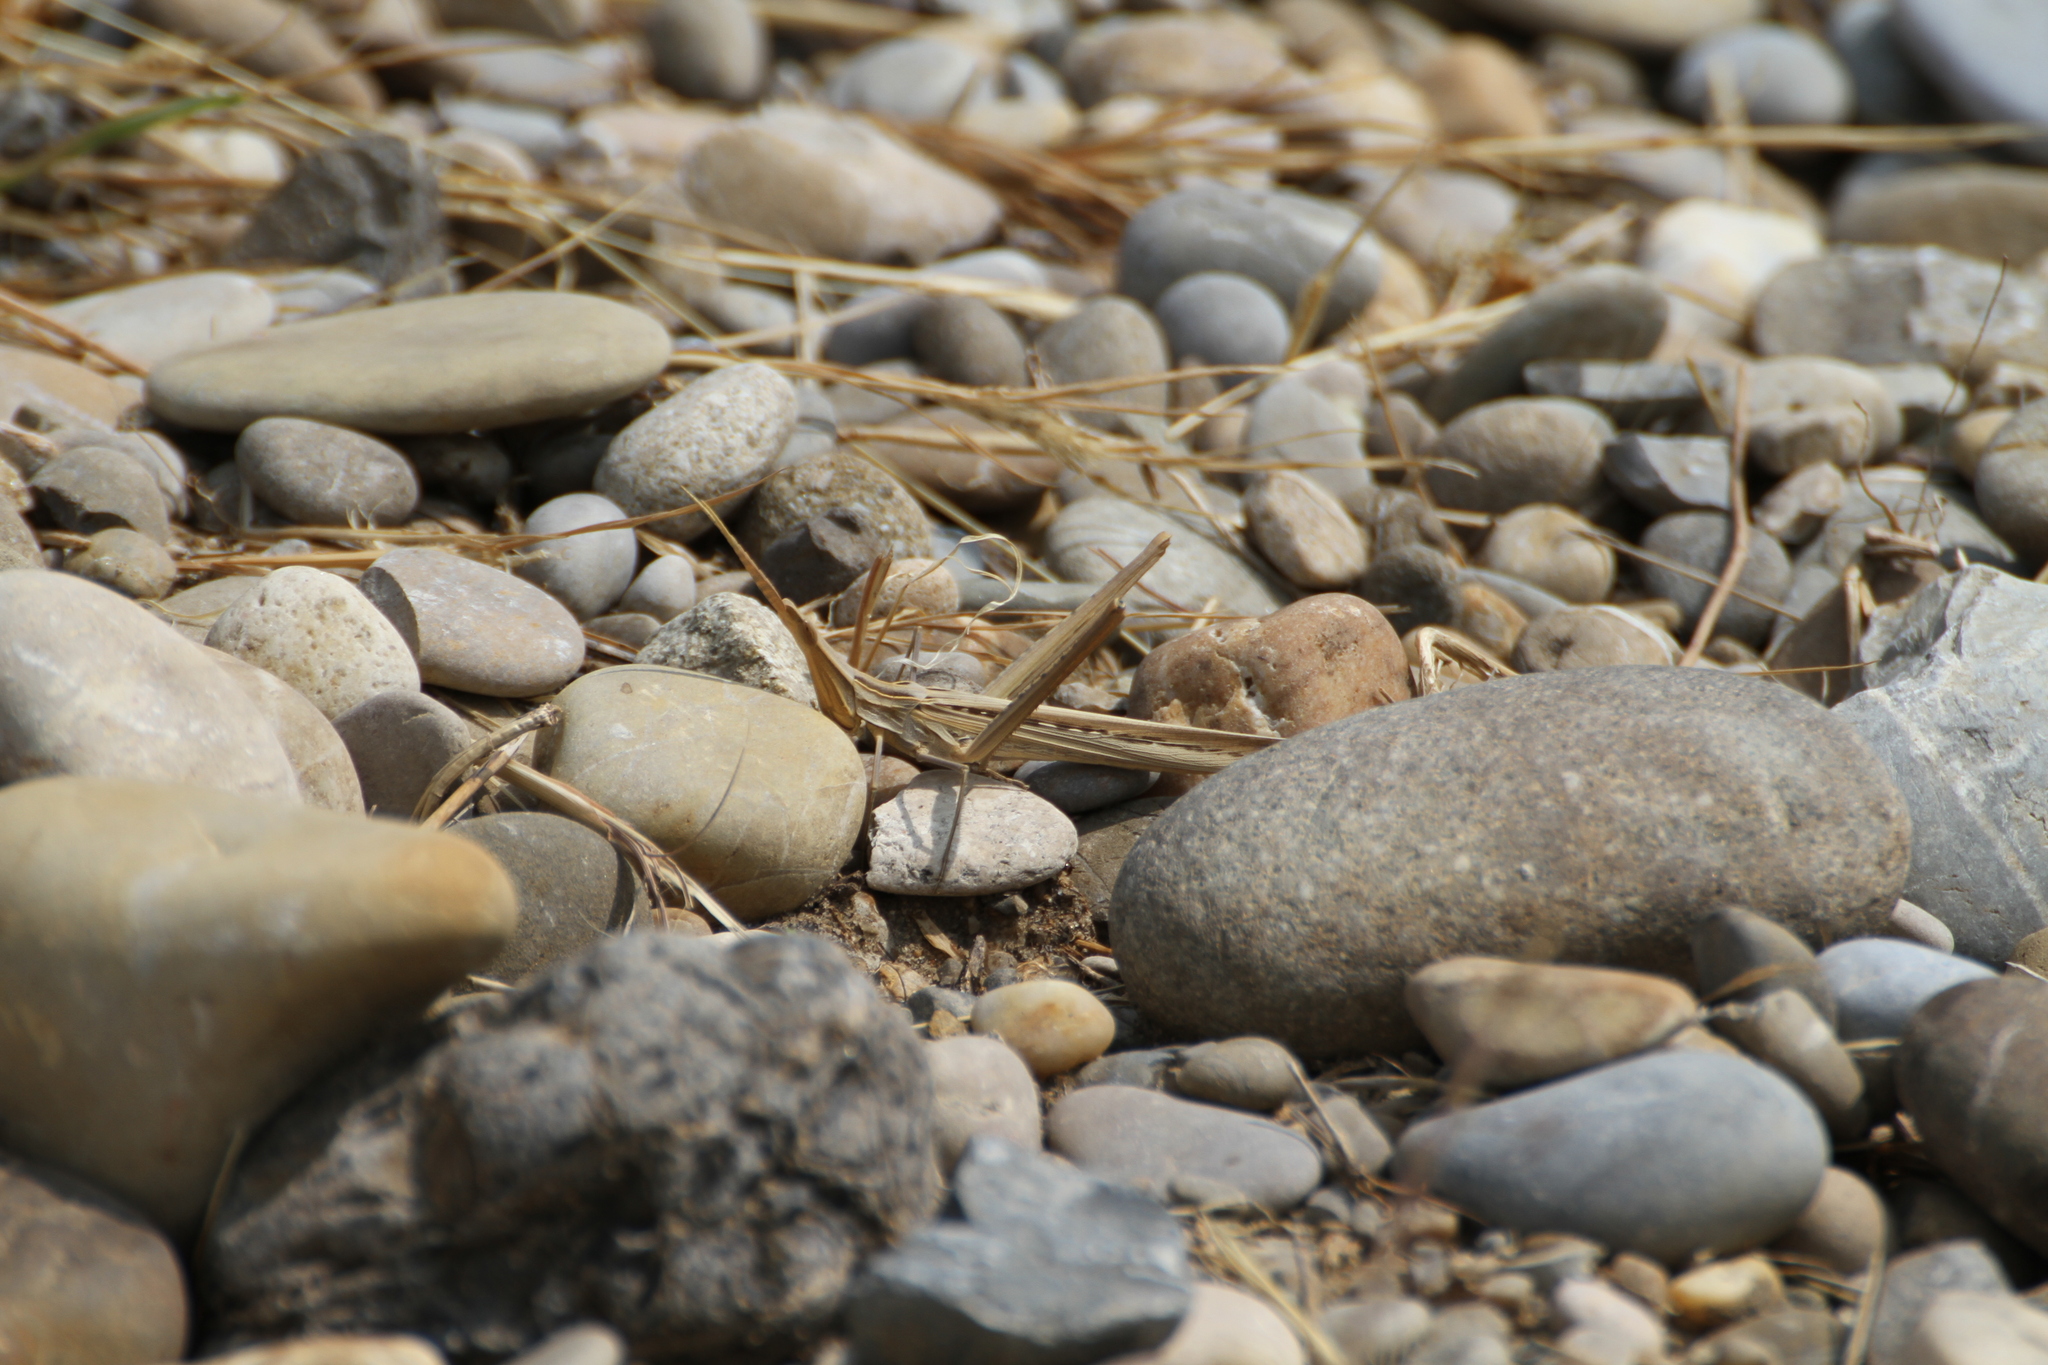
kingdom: Animalia
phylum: Arthropoda
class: Insecta
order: Orthoptera
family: Acrididae
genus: Acrida
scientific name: Acrida ungarica
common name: Common cone-headed grasshopper
